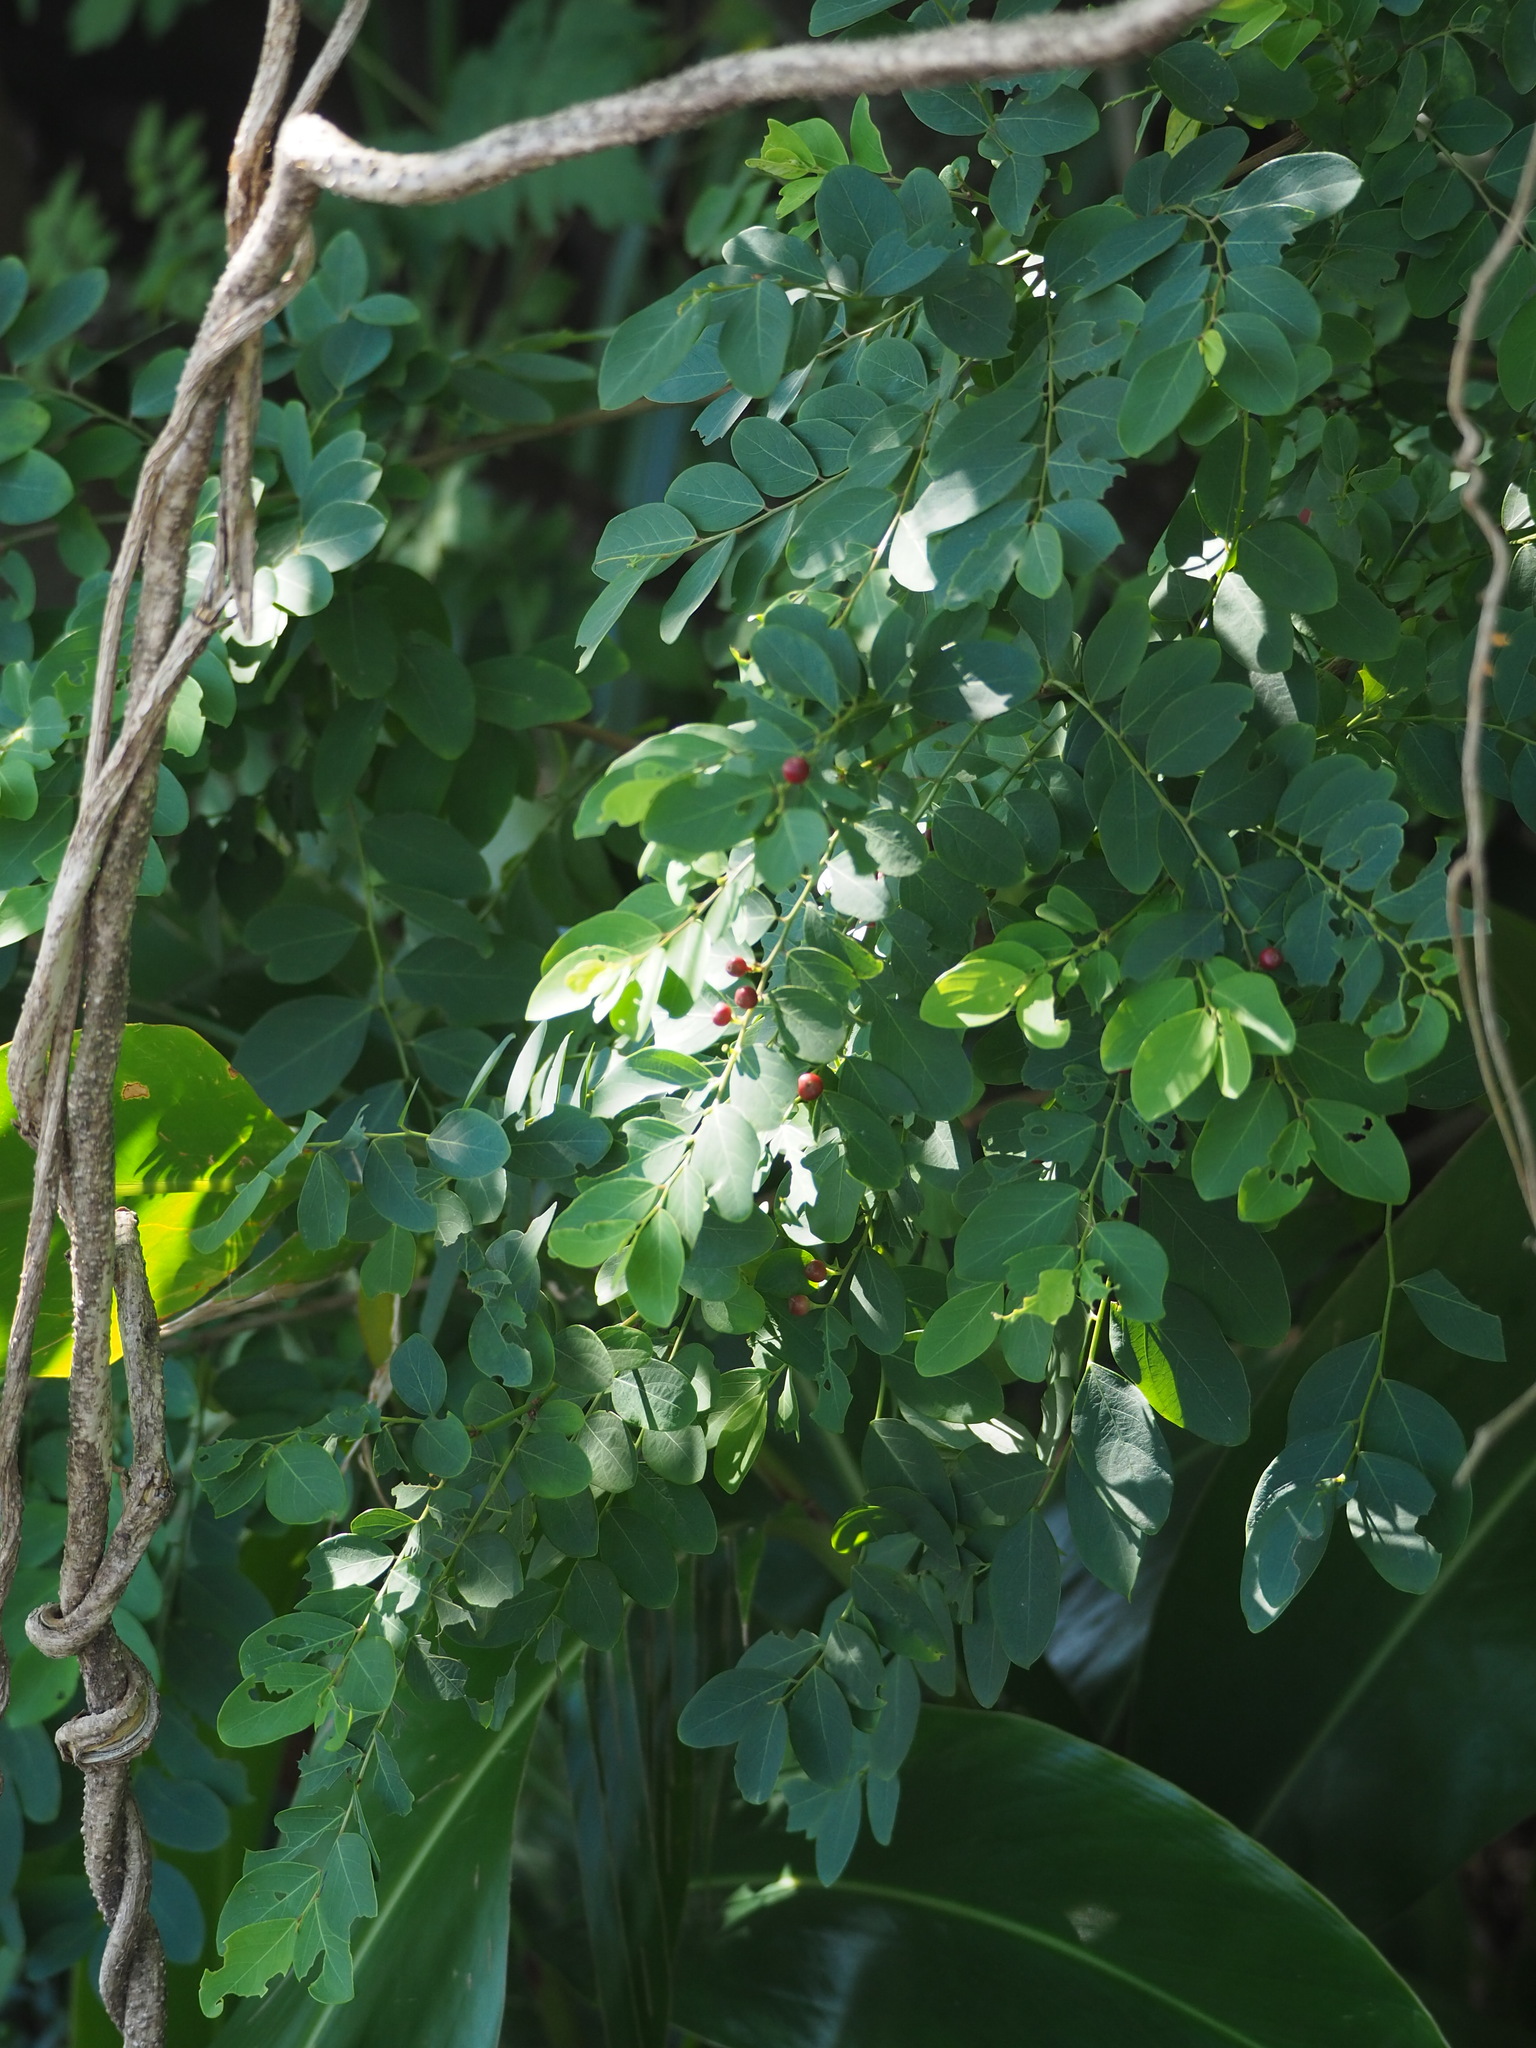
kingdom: Plantae
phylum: Tracheophyta
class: Magnoliopsida
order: Malpighiales
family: Phyllanthaceae
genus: Breynia
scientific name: Breynia vitis-idaea
